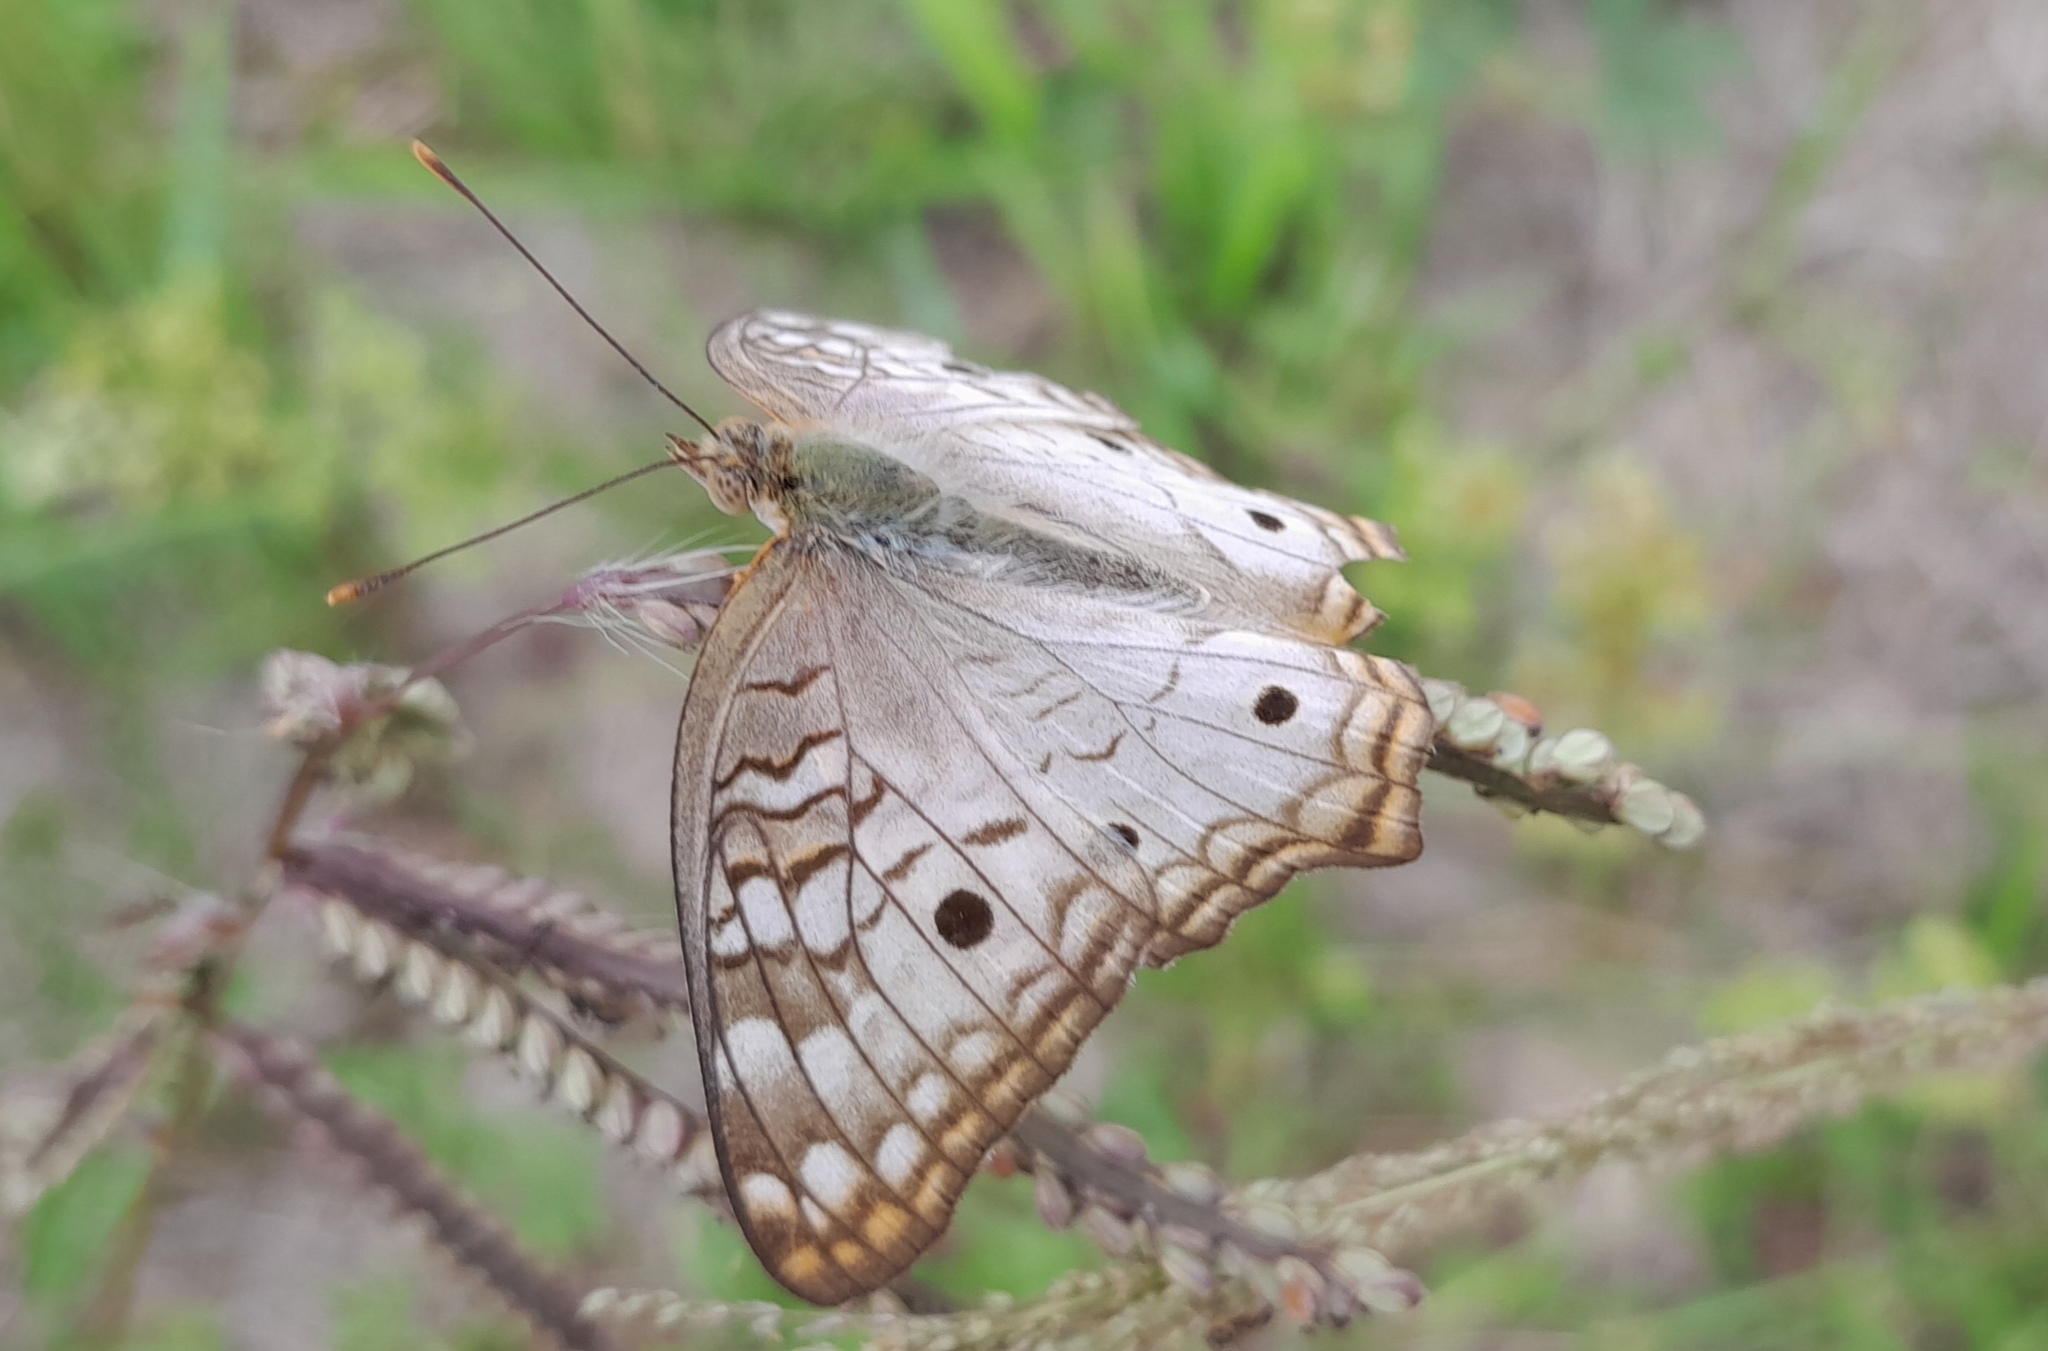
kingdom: Animalia
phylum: Arthropoda
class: Insecta
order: Lepidoptera
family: Nymphalidae
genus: Anartia
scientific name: Anartia jatrophae
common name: White peacock
